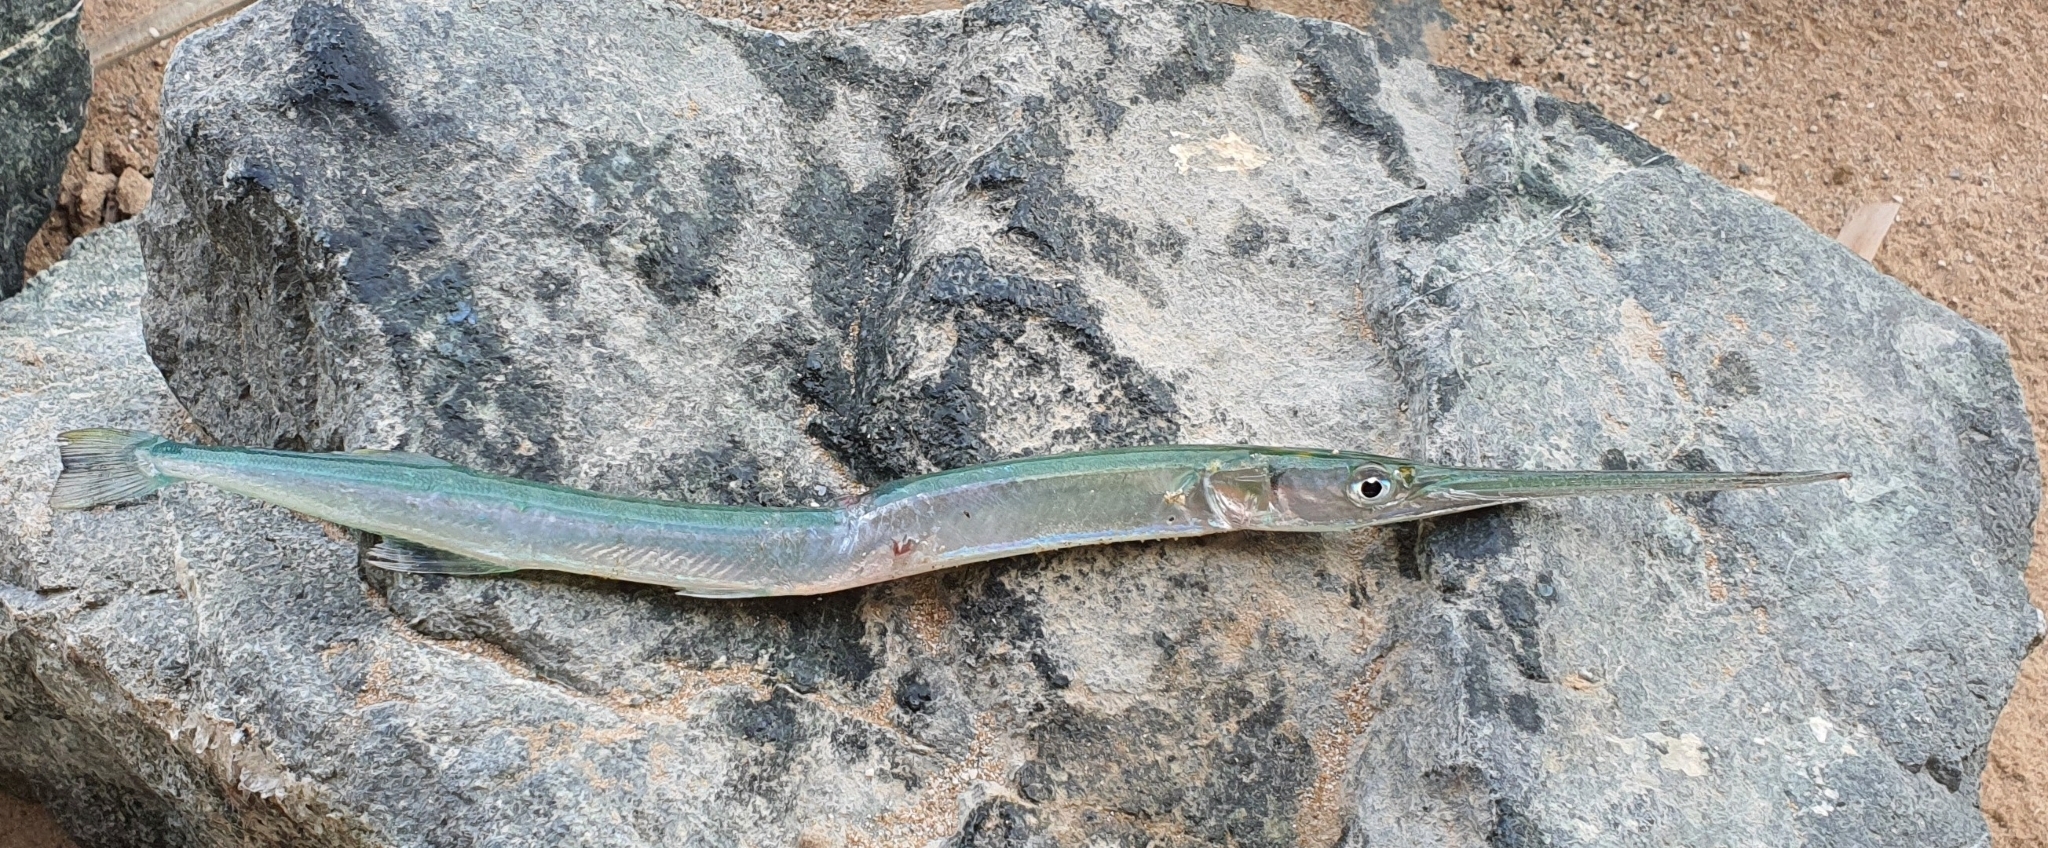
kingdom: Animalia
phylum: Chordata
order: Beloniformes
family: Belonidae
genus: Tylosurus
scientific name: Tylosurus crocodilus
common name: Houndfish
